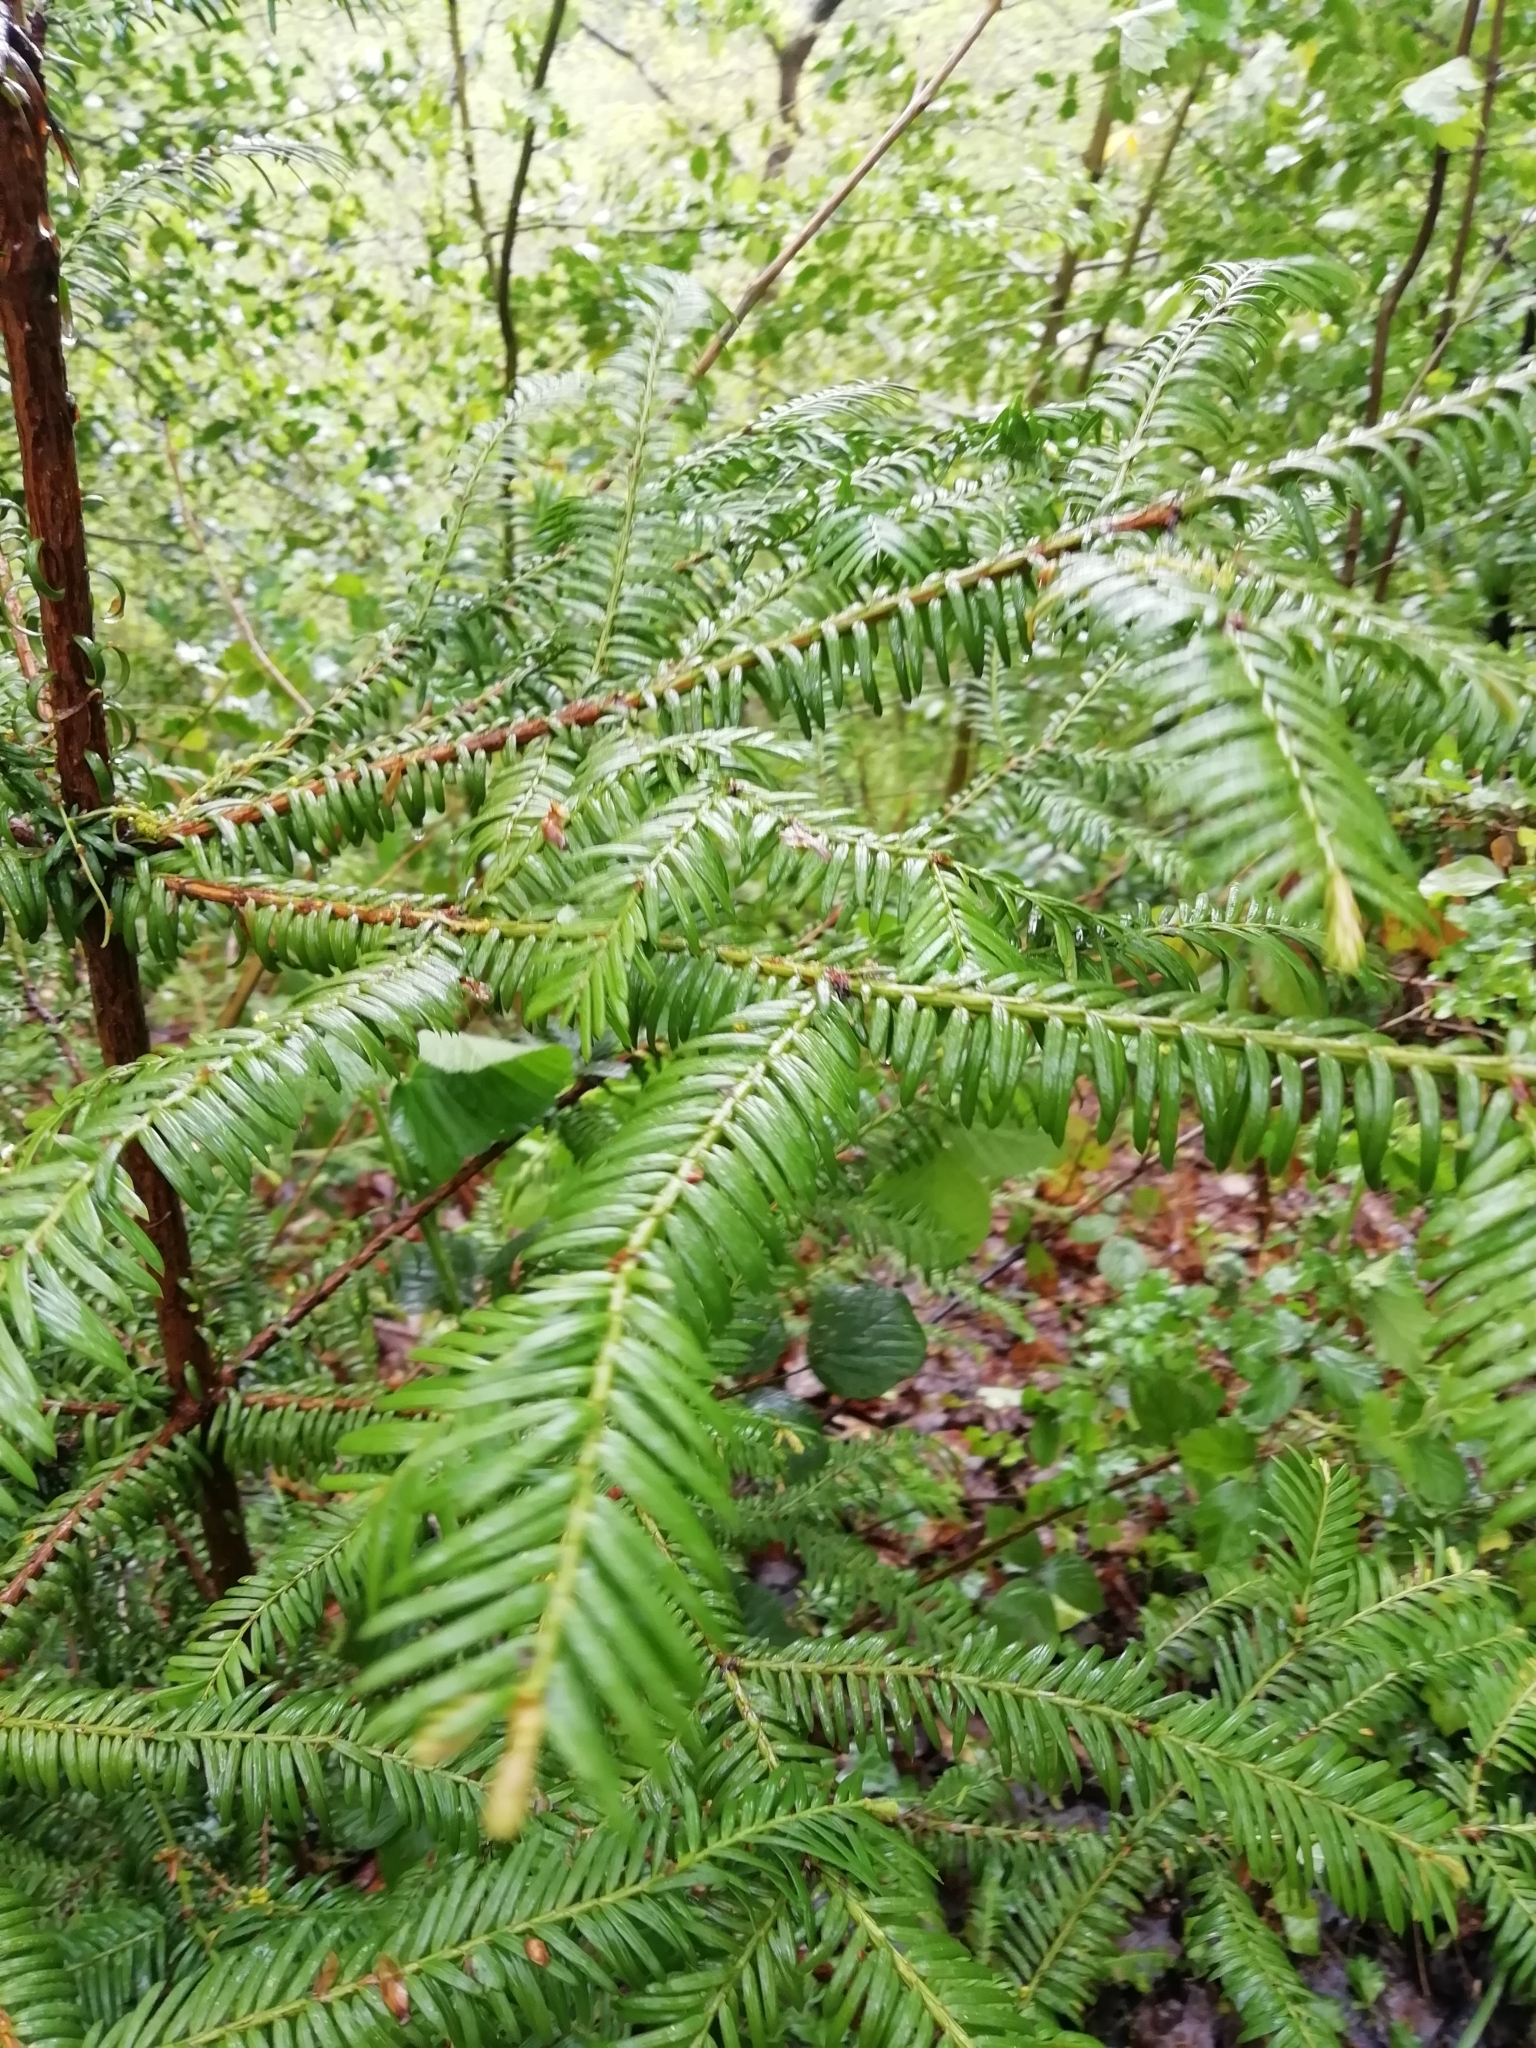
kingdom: Plantae
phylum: Tracheophyta
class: Pinopsida
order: Pinales
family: Taxaceae
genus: Taxus
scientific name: Taxus baccata
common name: Yew
